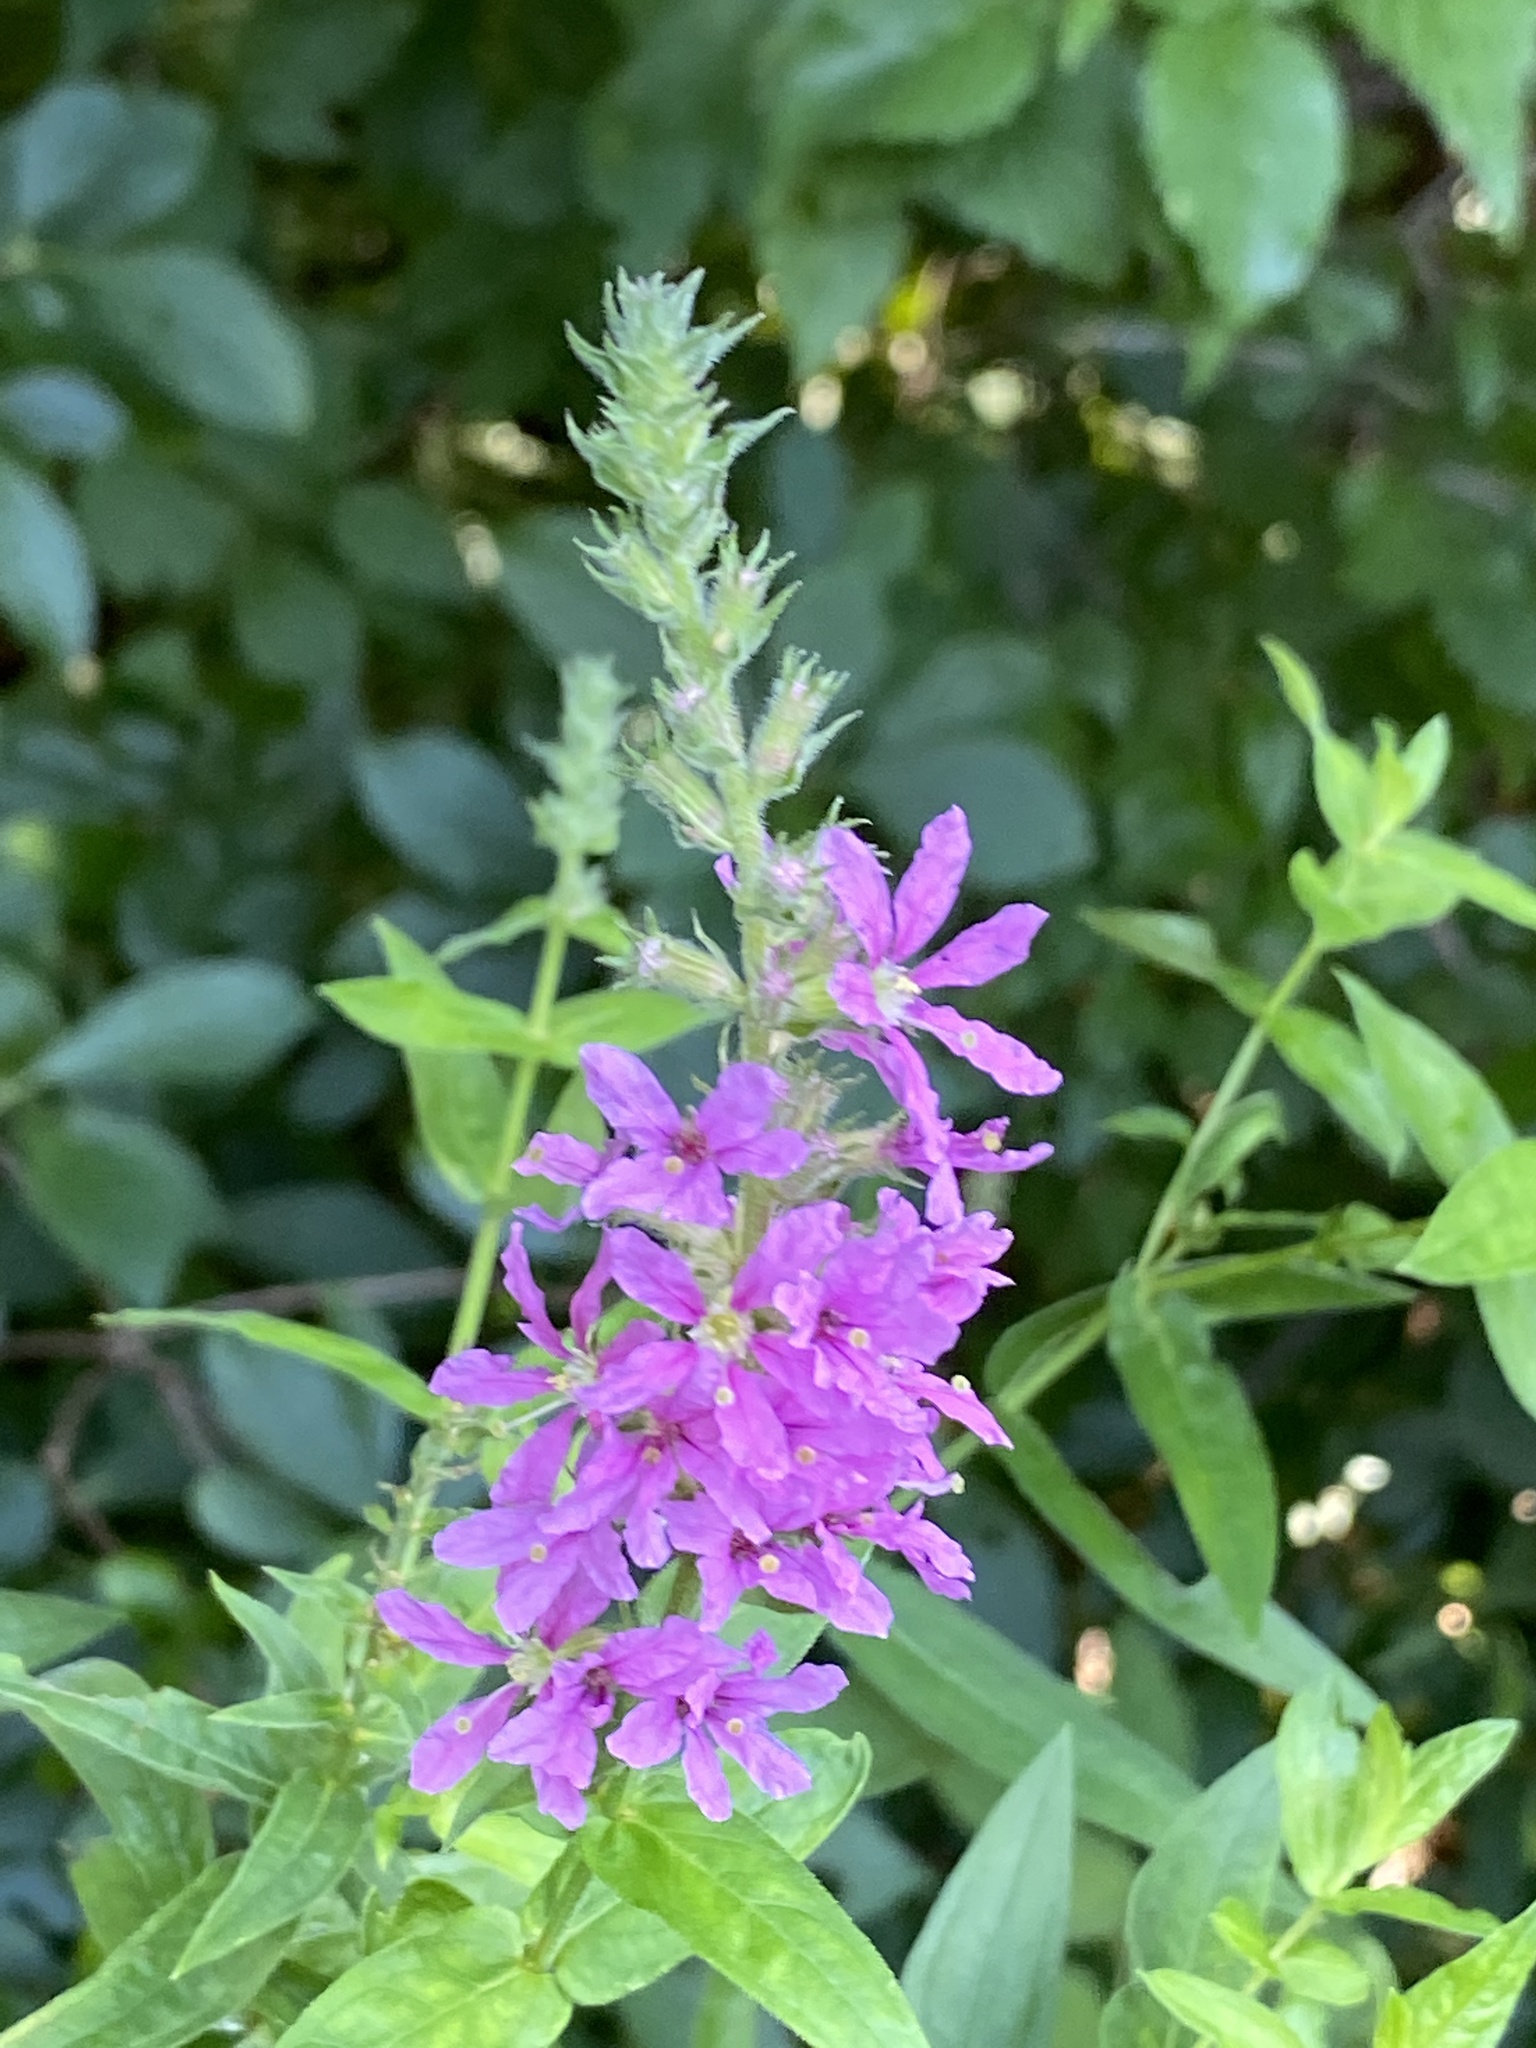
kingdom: Plantae
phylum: Tracheophyta
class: Magnoliopsida
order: Myrtales
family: Lythraceae
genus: Lythrum
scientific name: Lythrum salicaria
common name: Purple loosestrife
